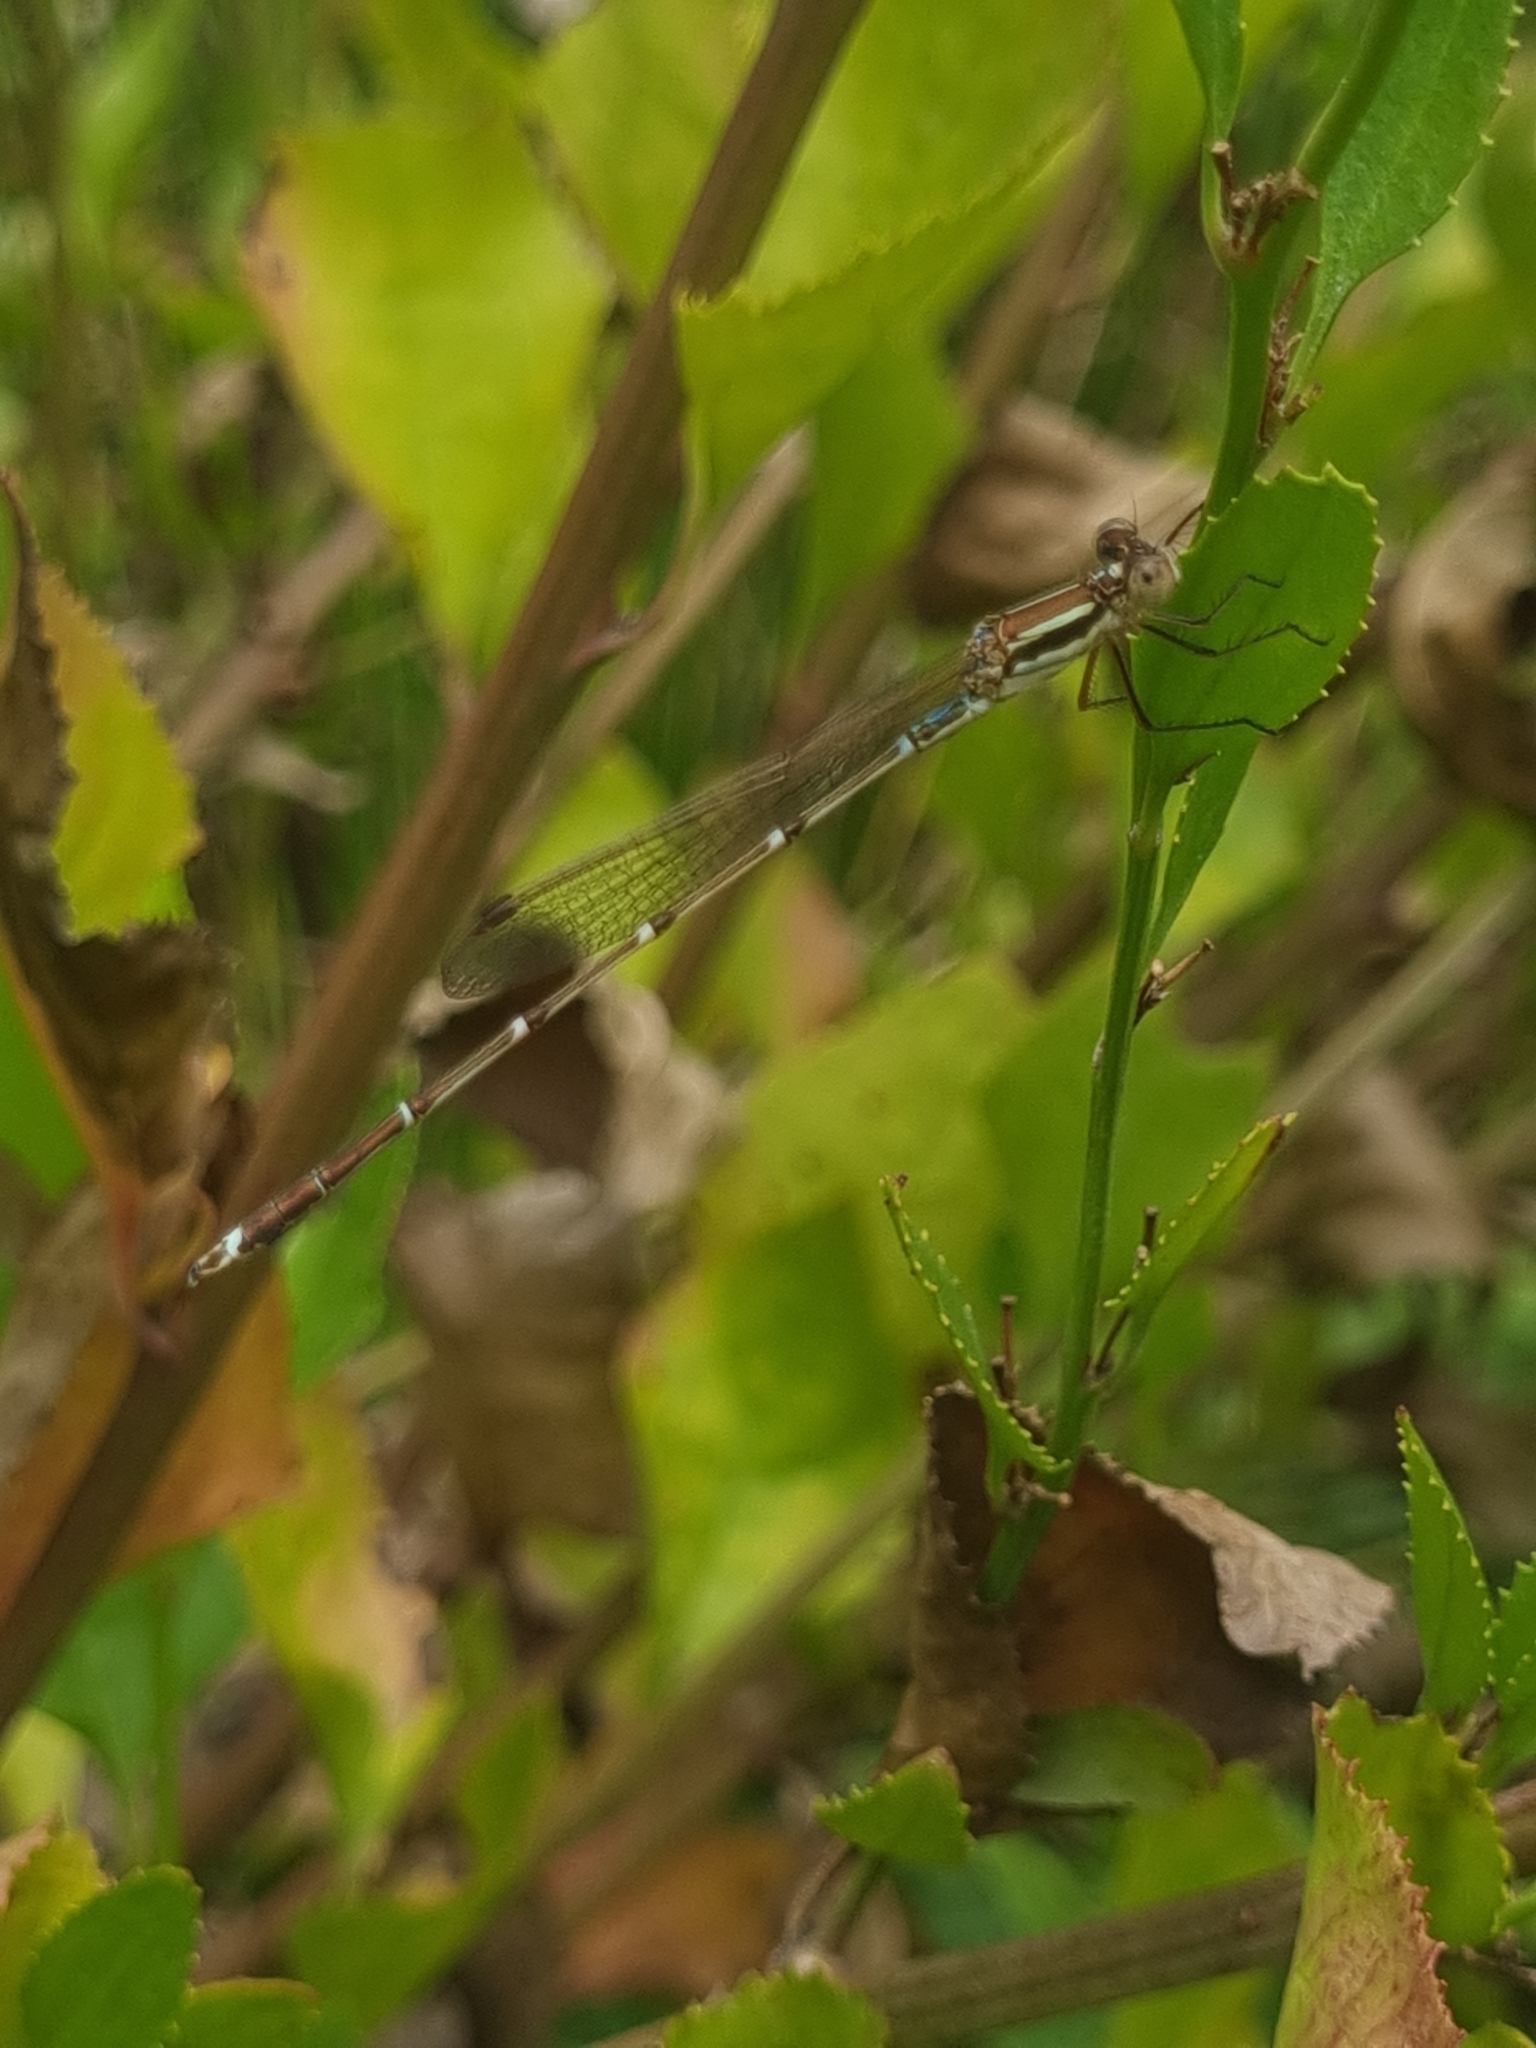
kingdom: Animalia
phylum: Arthropoda
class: Insecta
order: Odonata
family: Lestidae
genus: Austrolestes
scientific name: Austrolestes analis
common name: Slender ringtail
